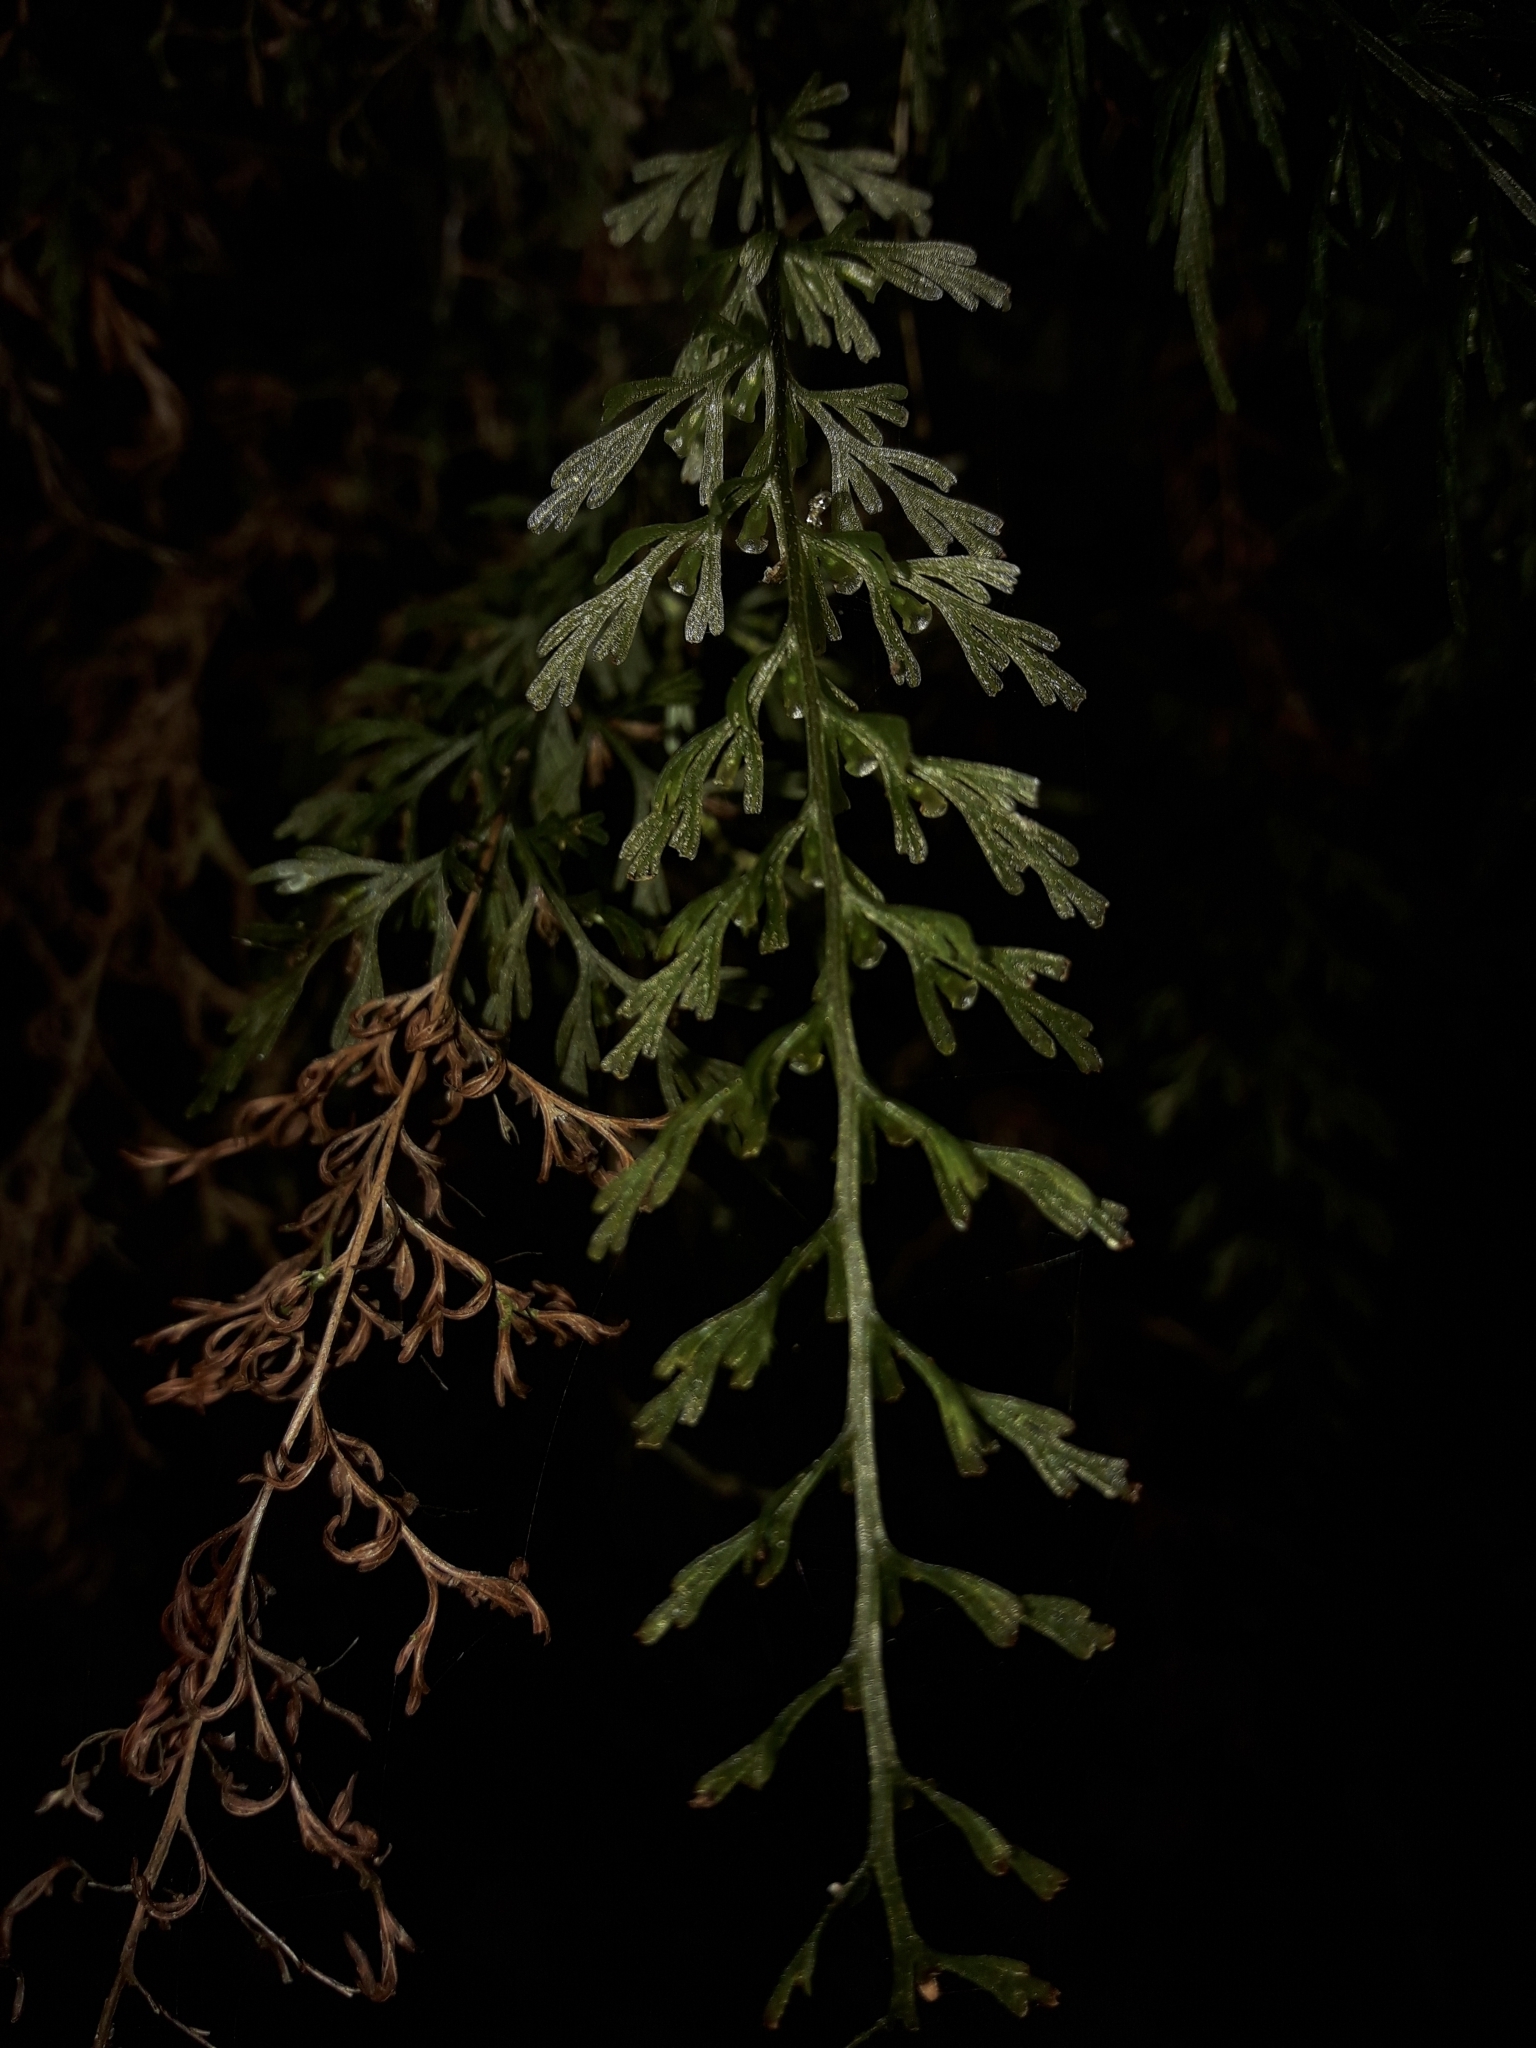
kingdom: Plantae
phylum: Tracheophyta
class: Polypodiopsida
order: Hymenophyllales
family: Hymenophyllaceae
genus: Abrodictyum
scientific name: Abrodictyum caudatum
